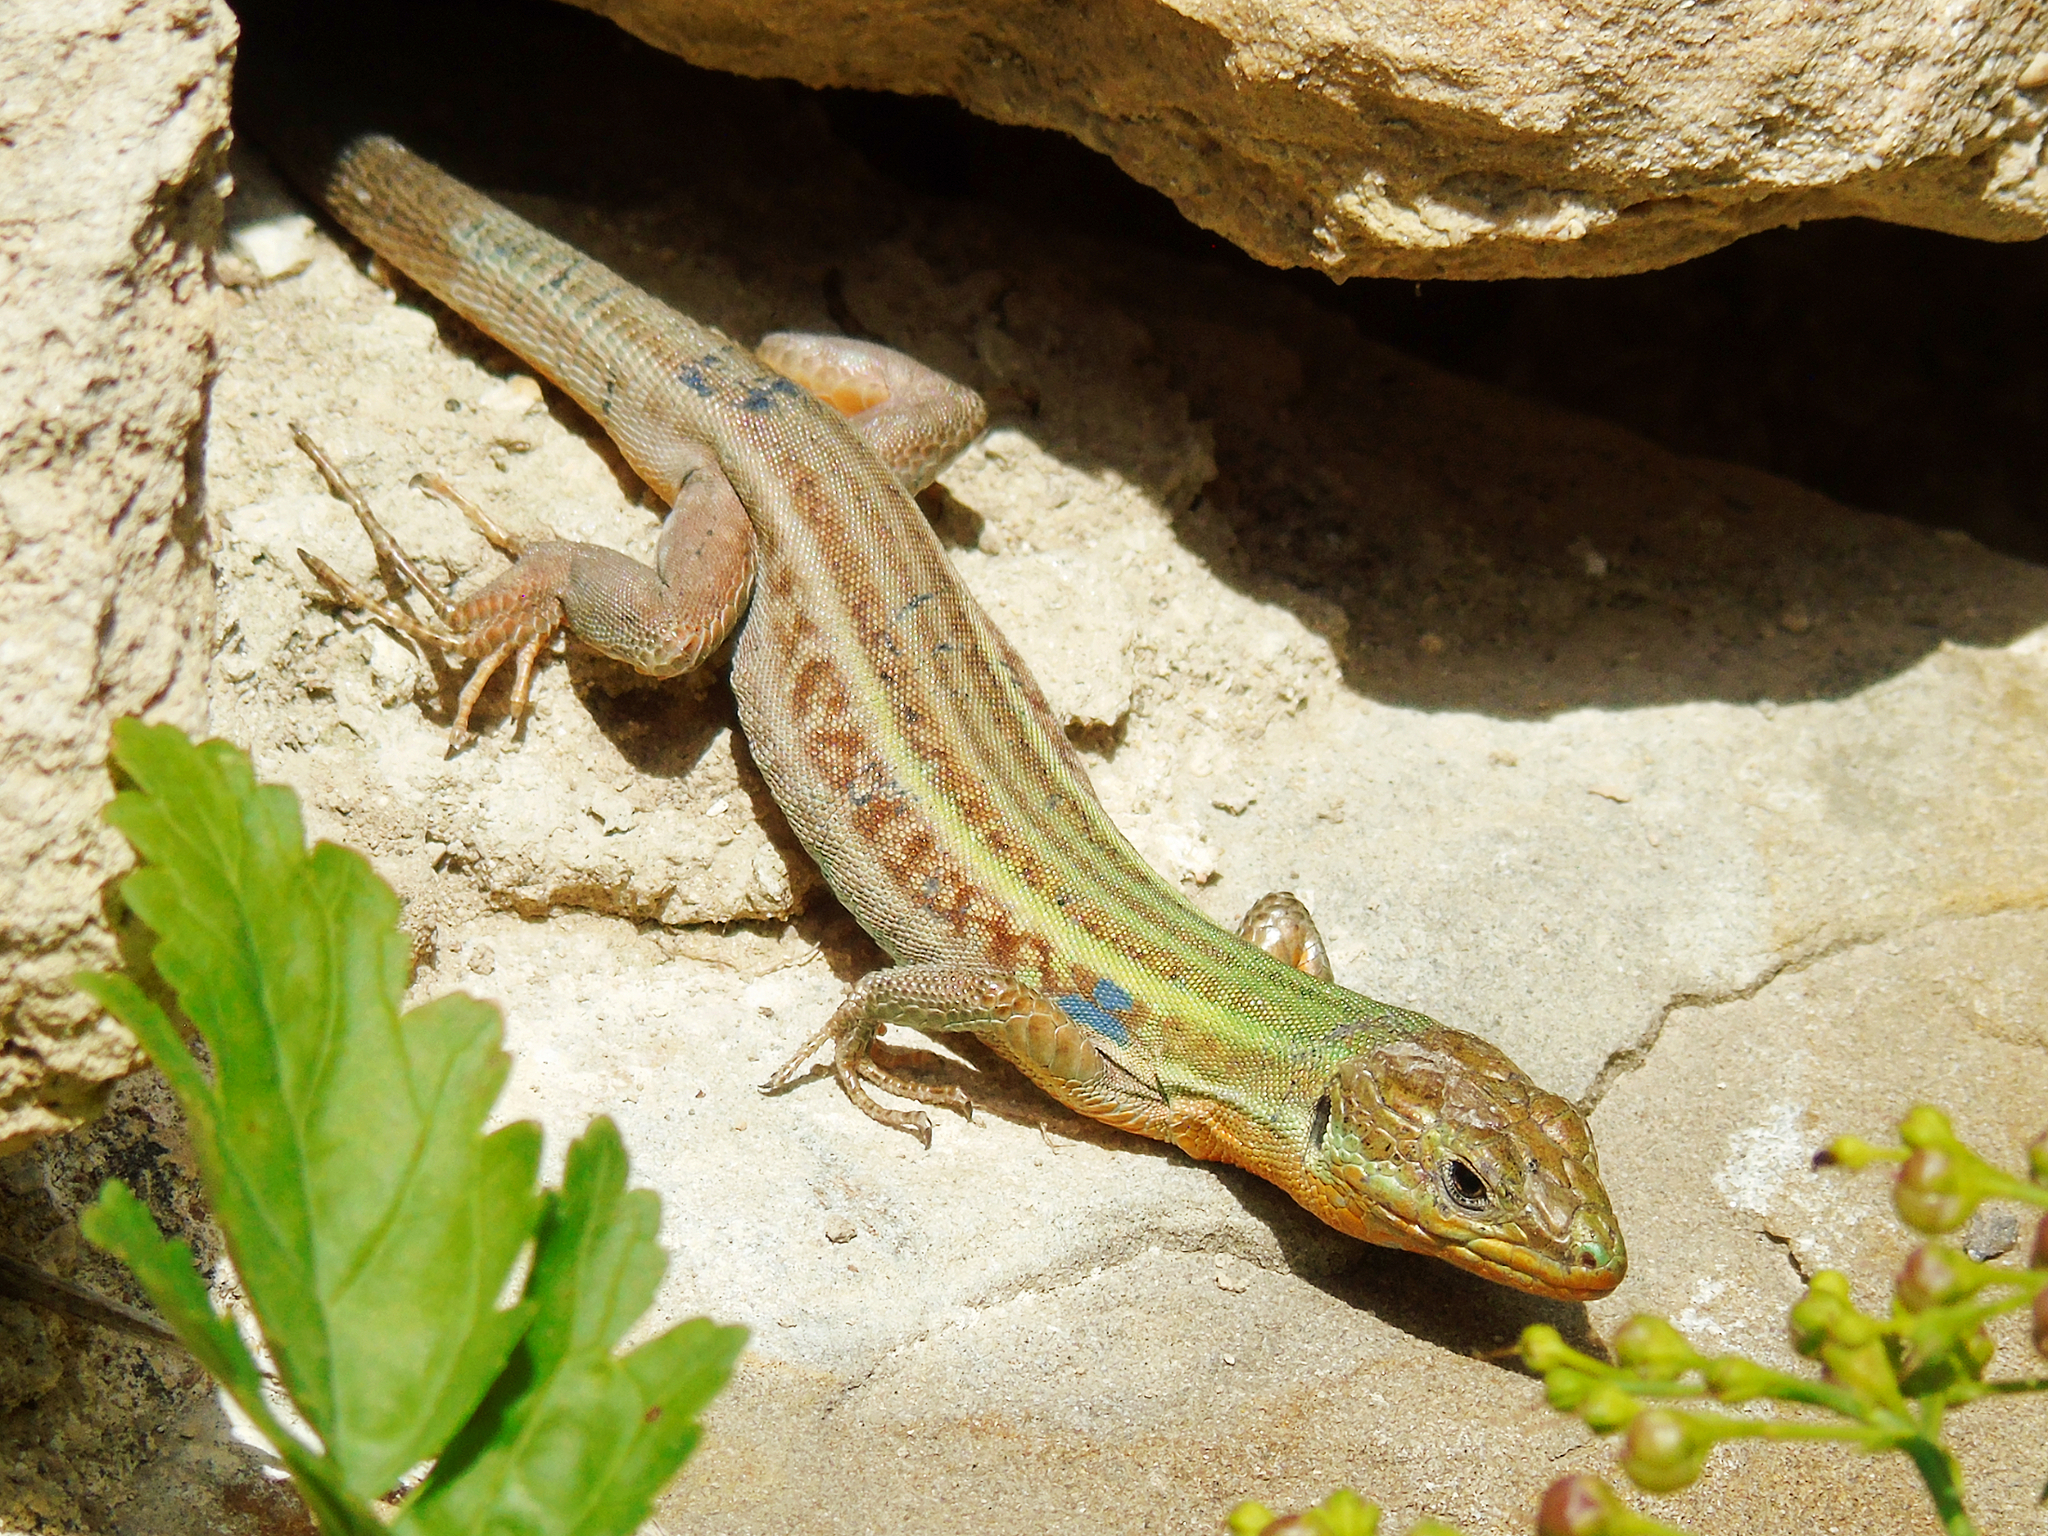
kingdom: Animalia
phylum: Chordata
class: Squamata
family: Lacertidae
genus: Podarcis
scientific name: Podarcis peloponnesiacus
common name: Peloponnese wall lizard
